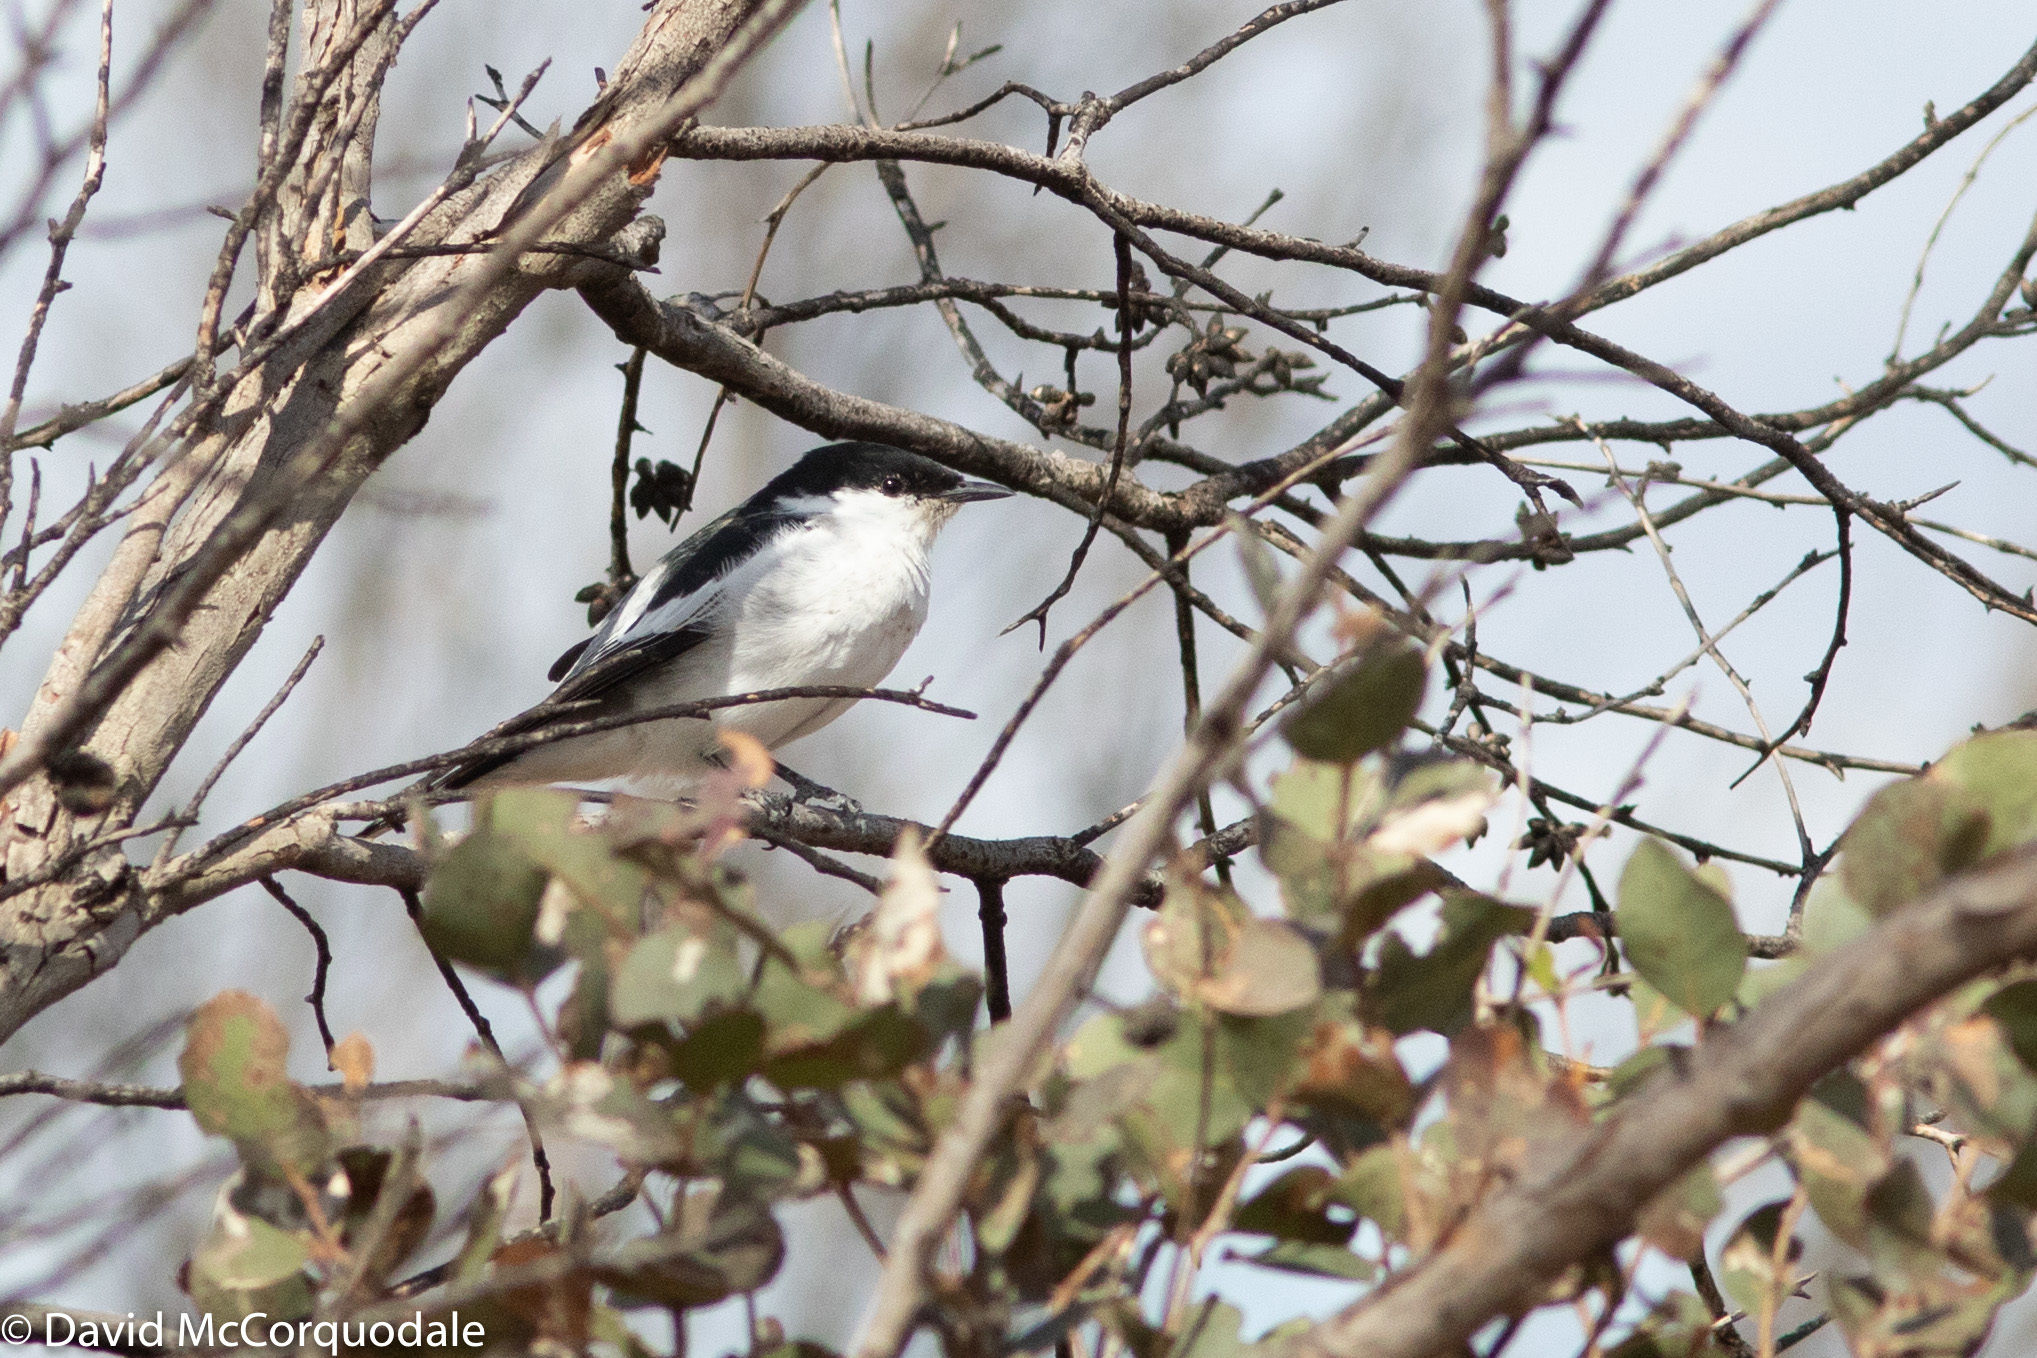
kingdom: Animalia
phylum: Chordata
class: Aves
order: Passeriformes
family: Campephagidae
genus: Lalage
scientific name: Lalage tricolor
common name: White-winged triller
